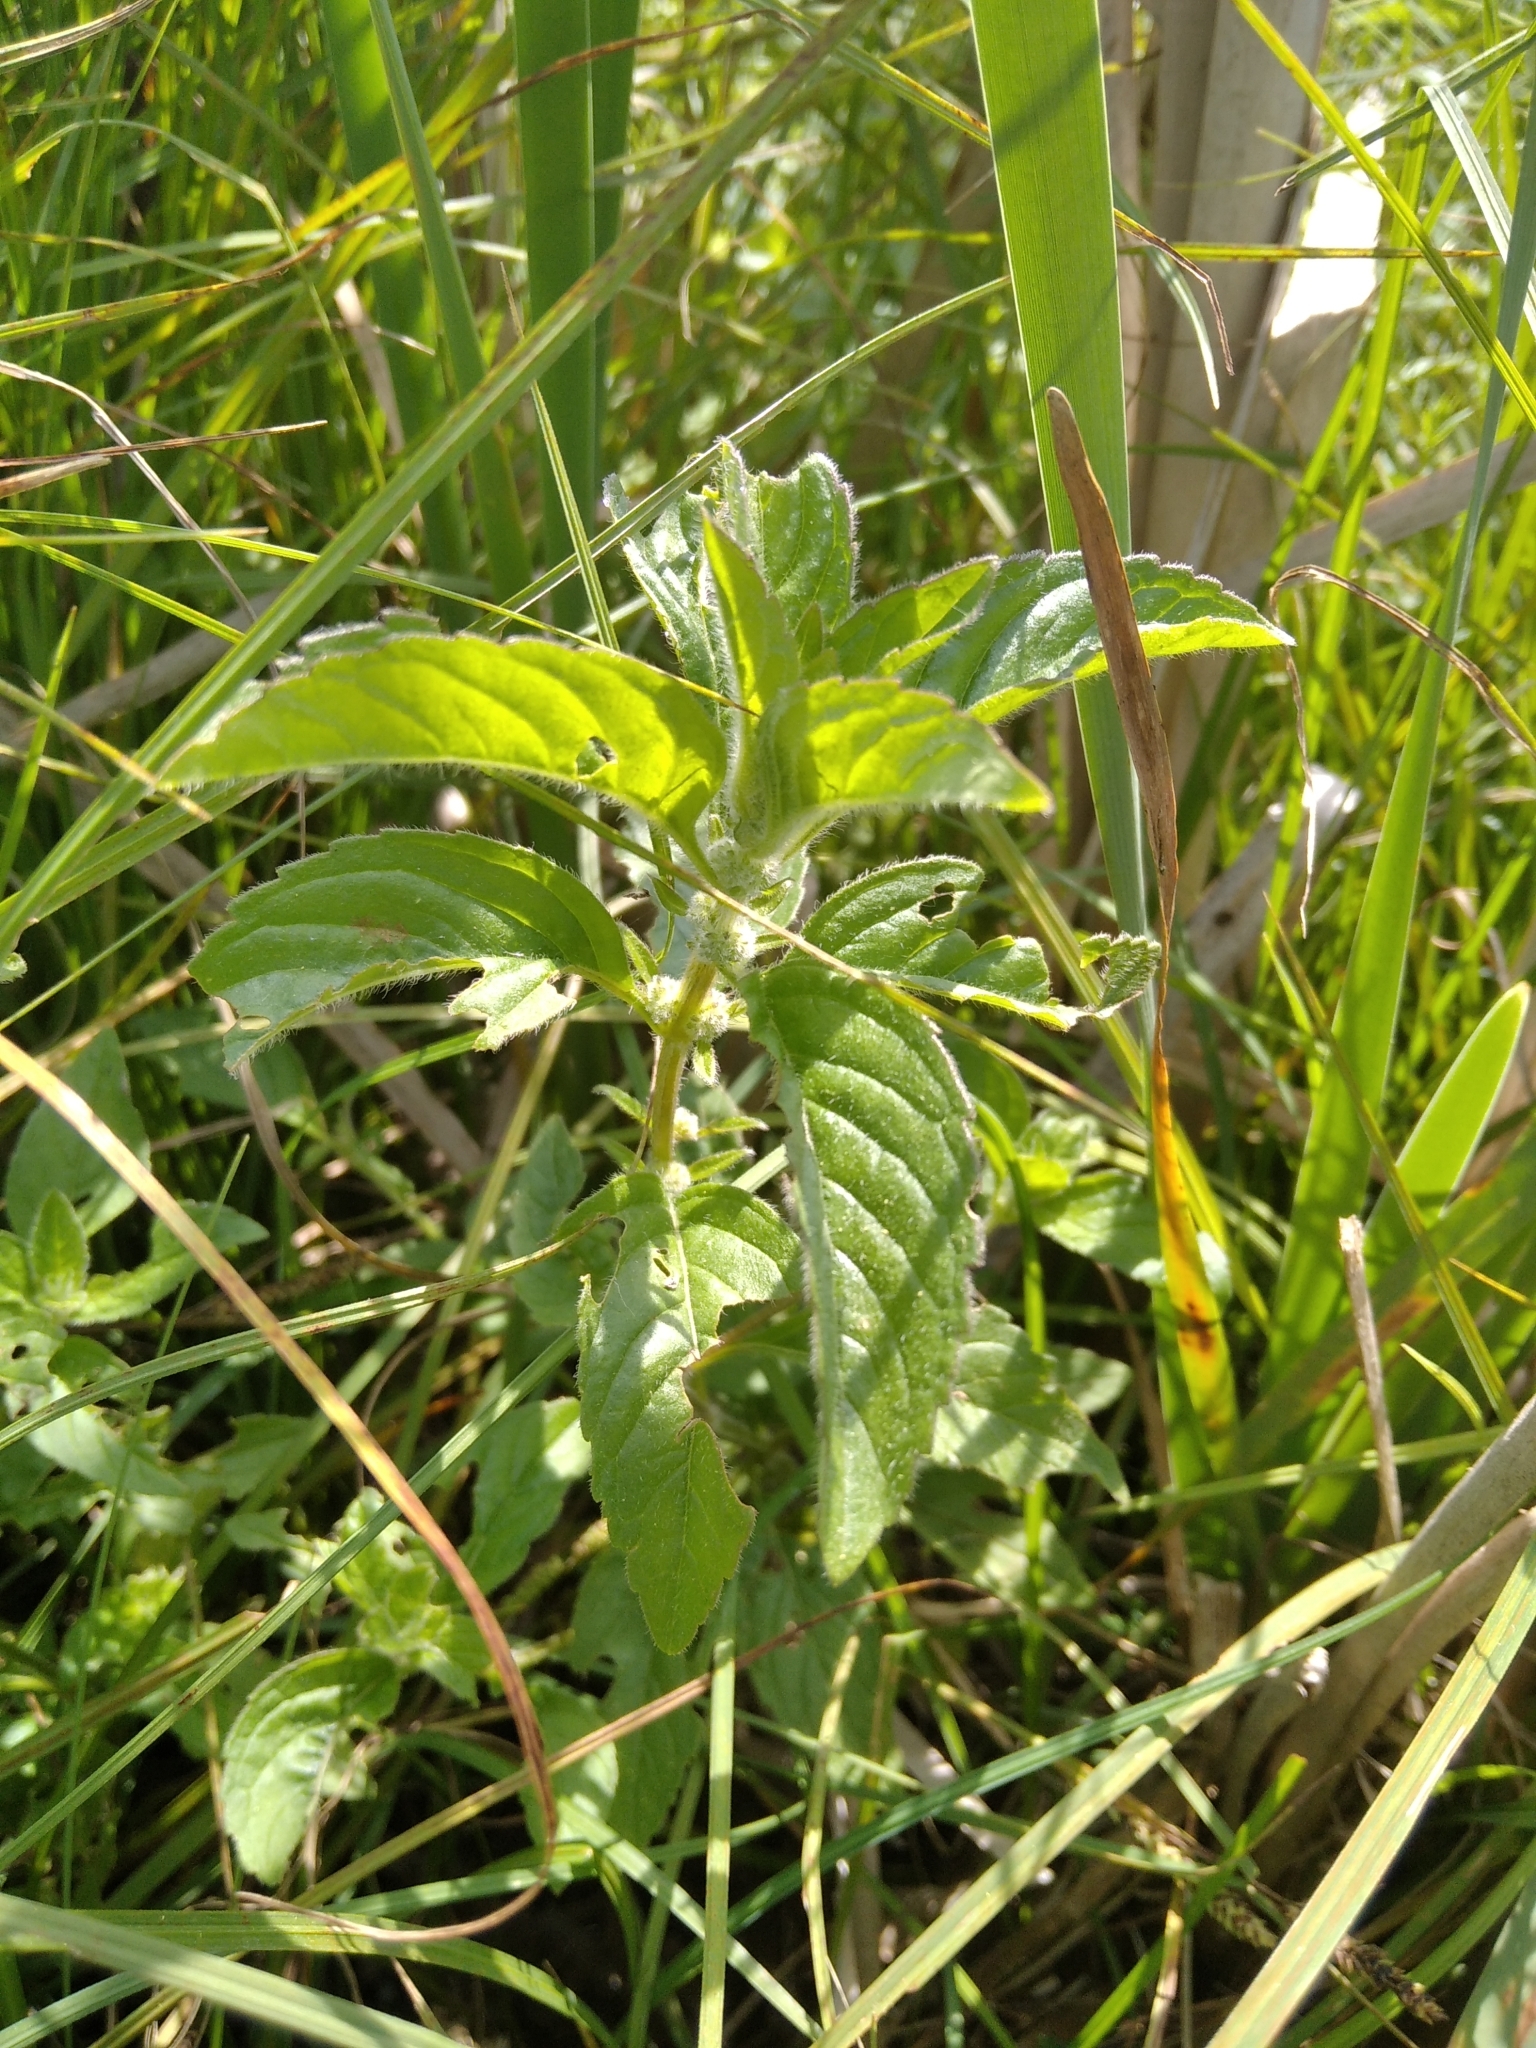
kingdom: Plantae
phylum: Tracheophyta
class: Magnoliopsida
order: Lamiales
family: Lamiaceae
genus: Mentha
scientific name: Mentha arvensis
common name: Corn mint
